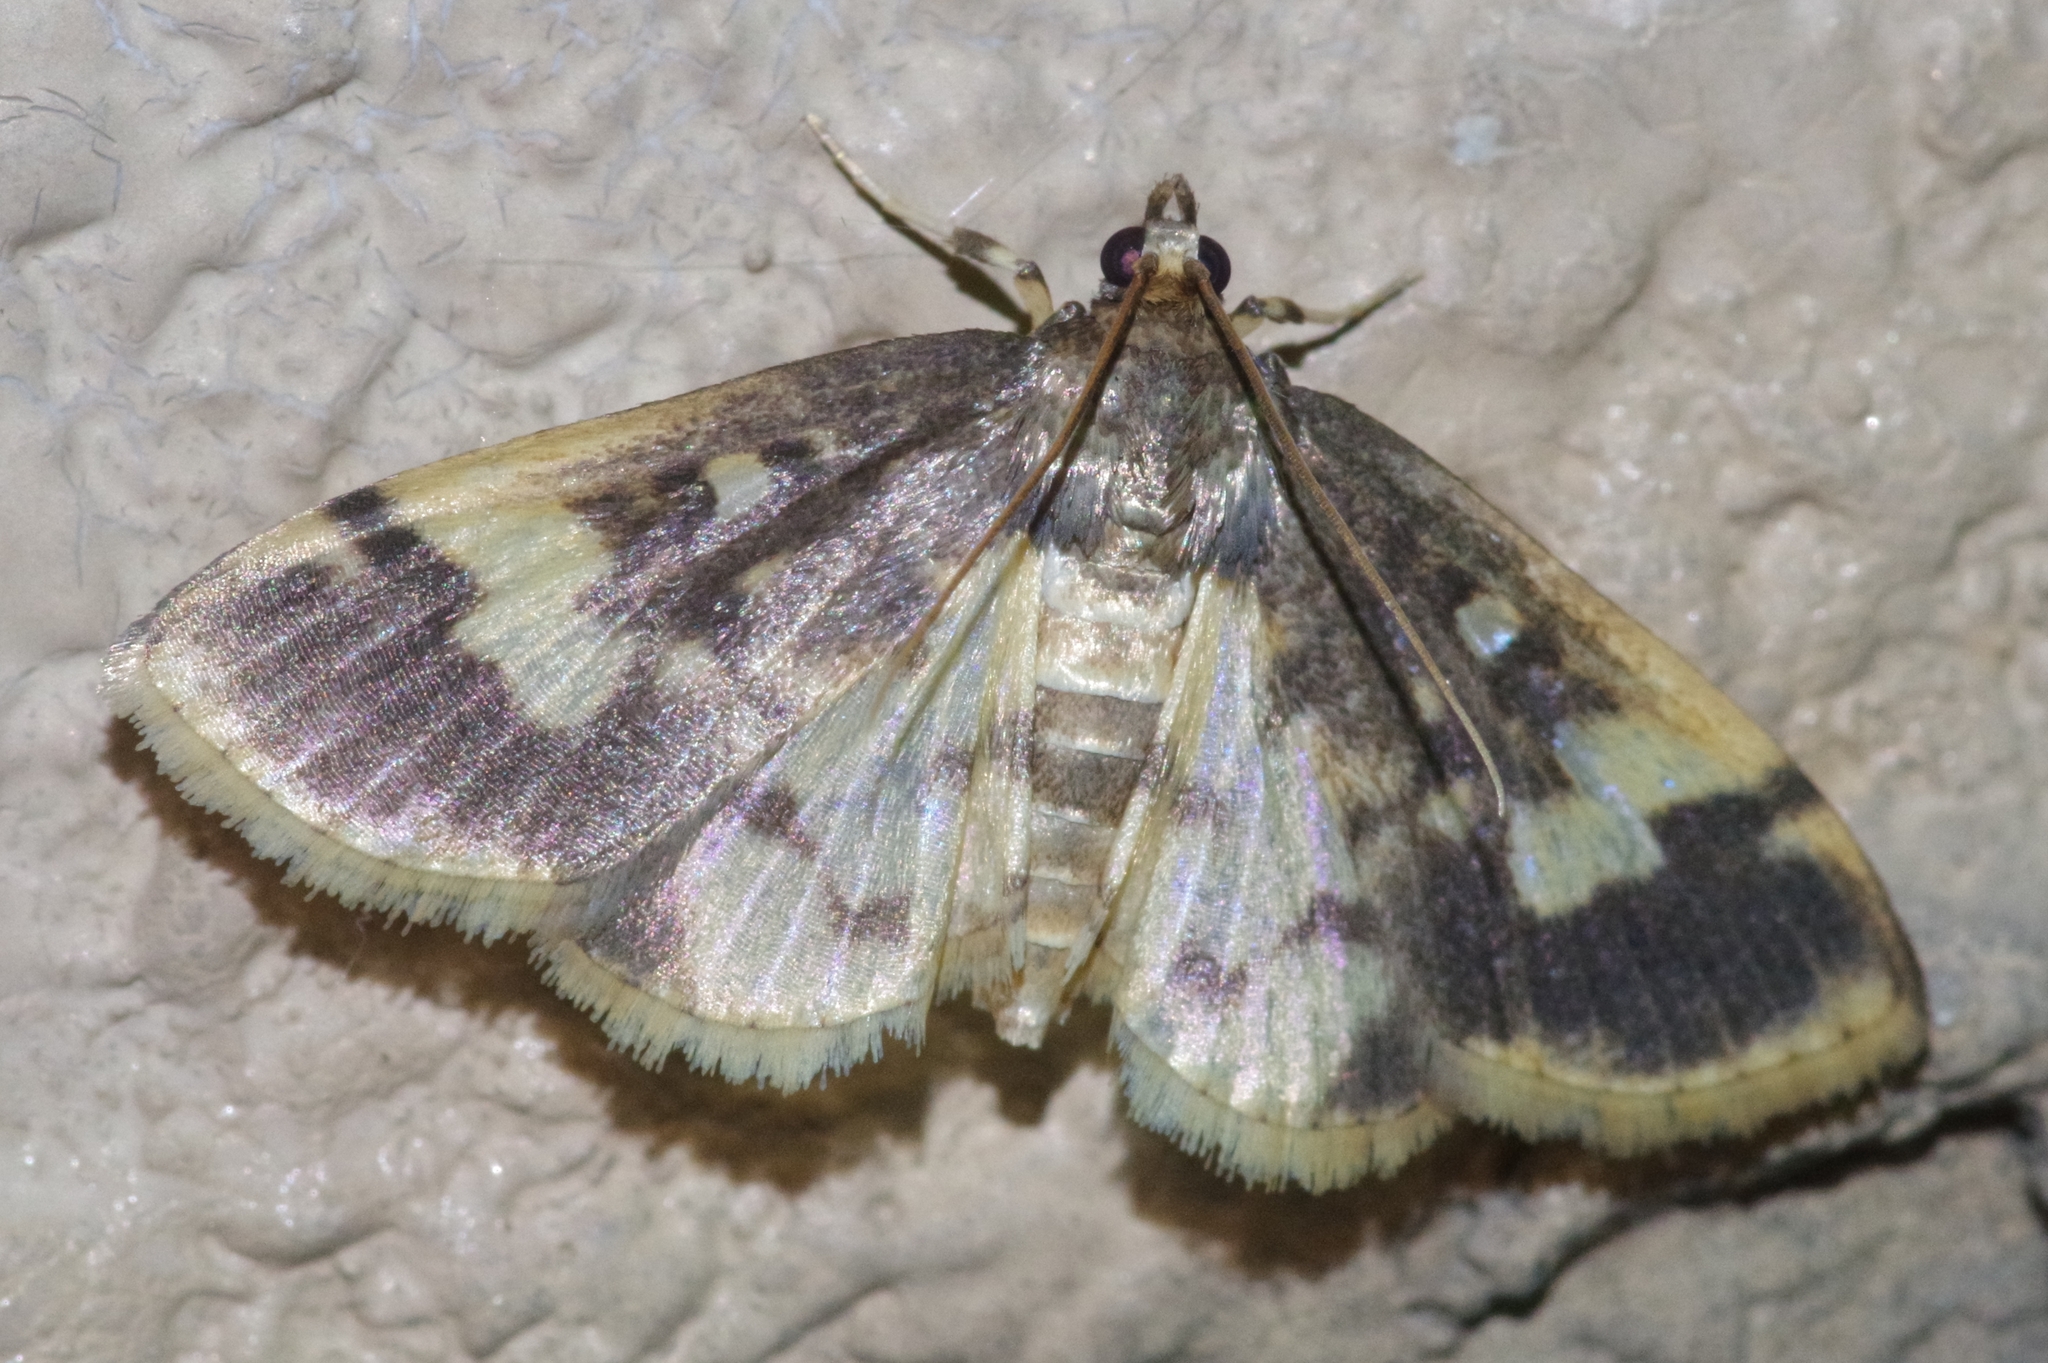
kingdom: Animalia
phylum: Arthropoda
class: Insecta
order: Lepidoptera
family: Crambidae
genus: Pseudebulea
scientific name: Pseudebulea fentoni
